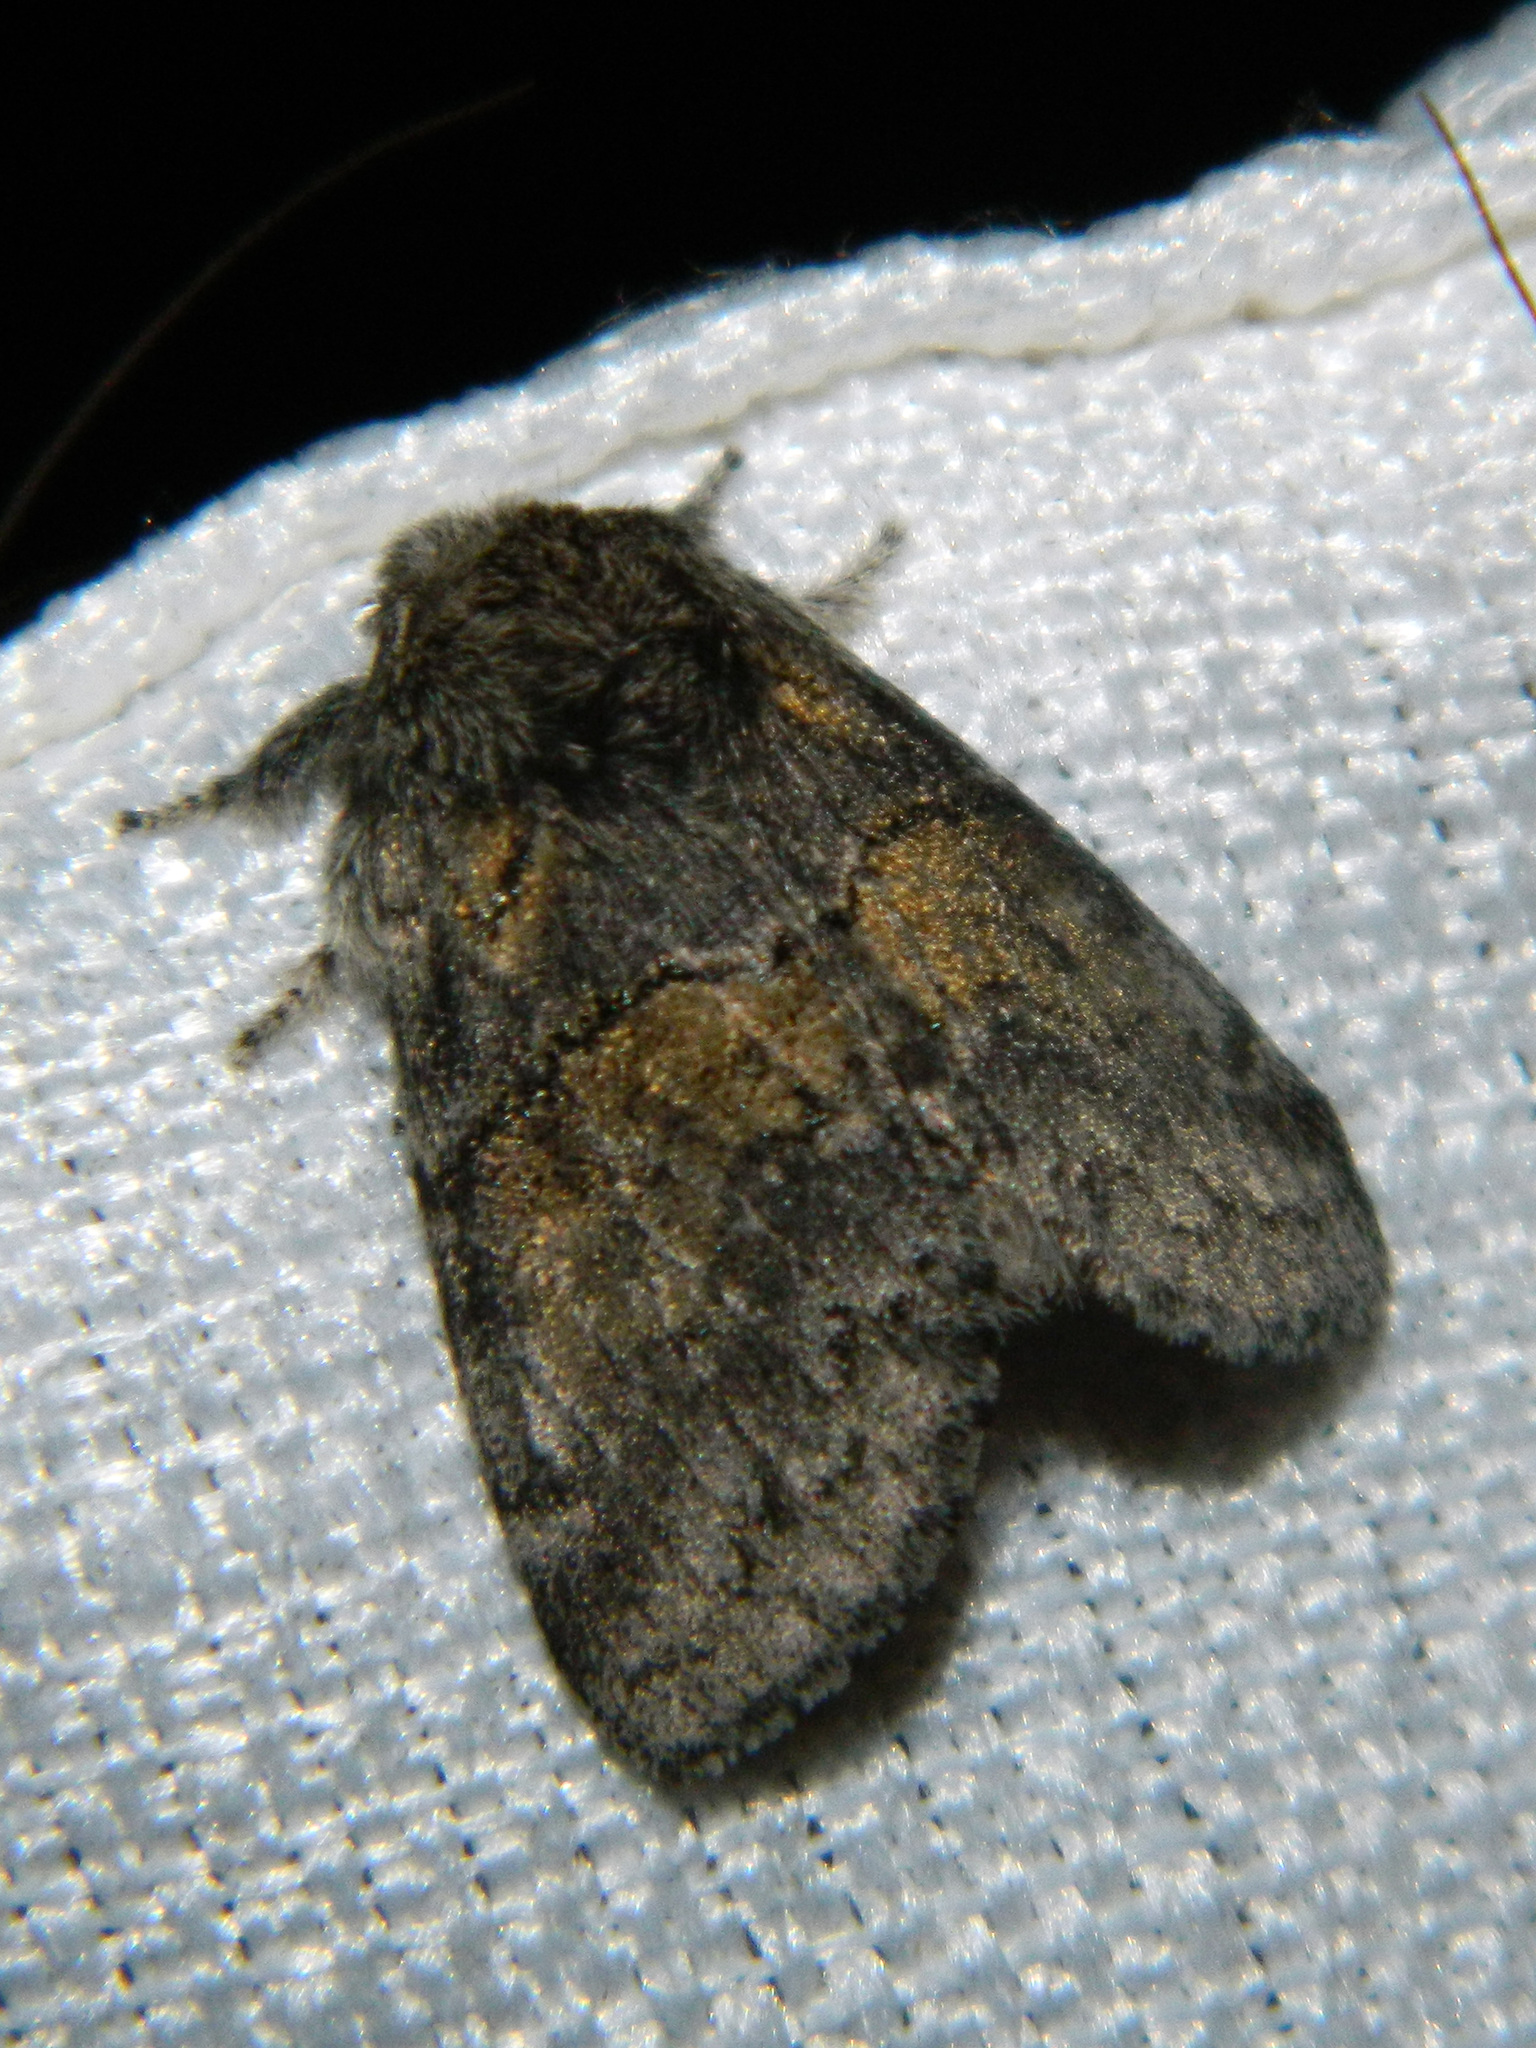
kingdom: Animalia
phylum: Arthropoda
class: Insecta
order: Lepidoptera
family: Notodontidae
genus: Gluphisia
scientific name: Gluphisia septentrionis
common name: Common gluphisia
